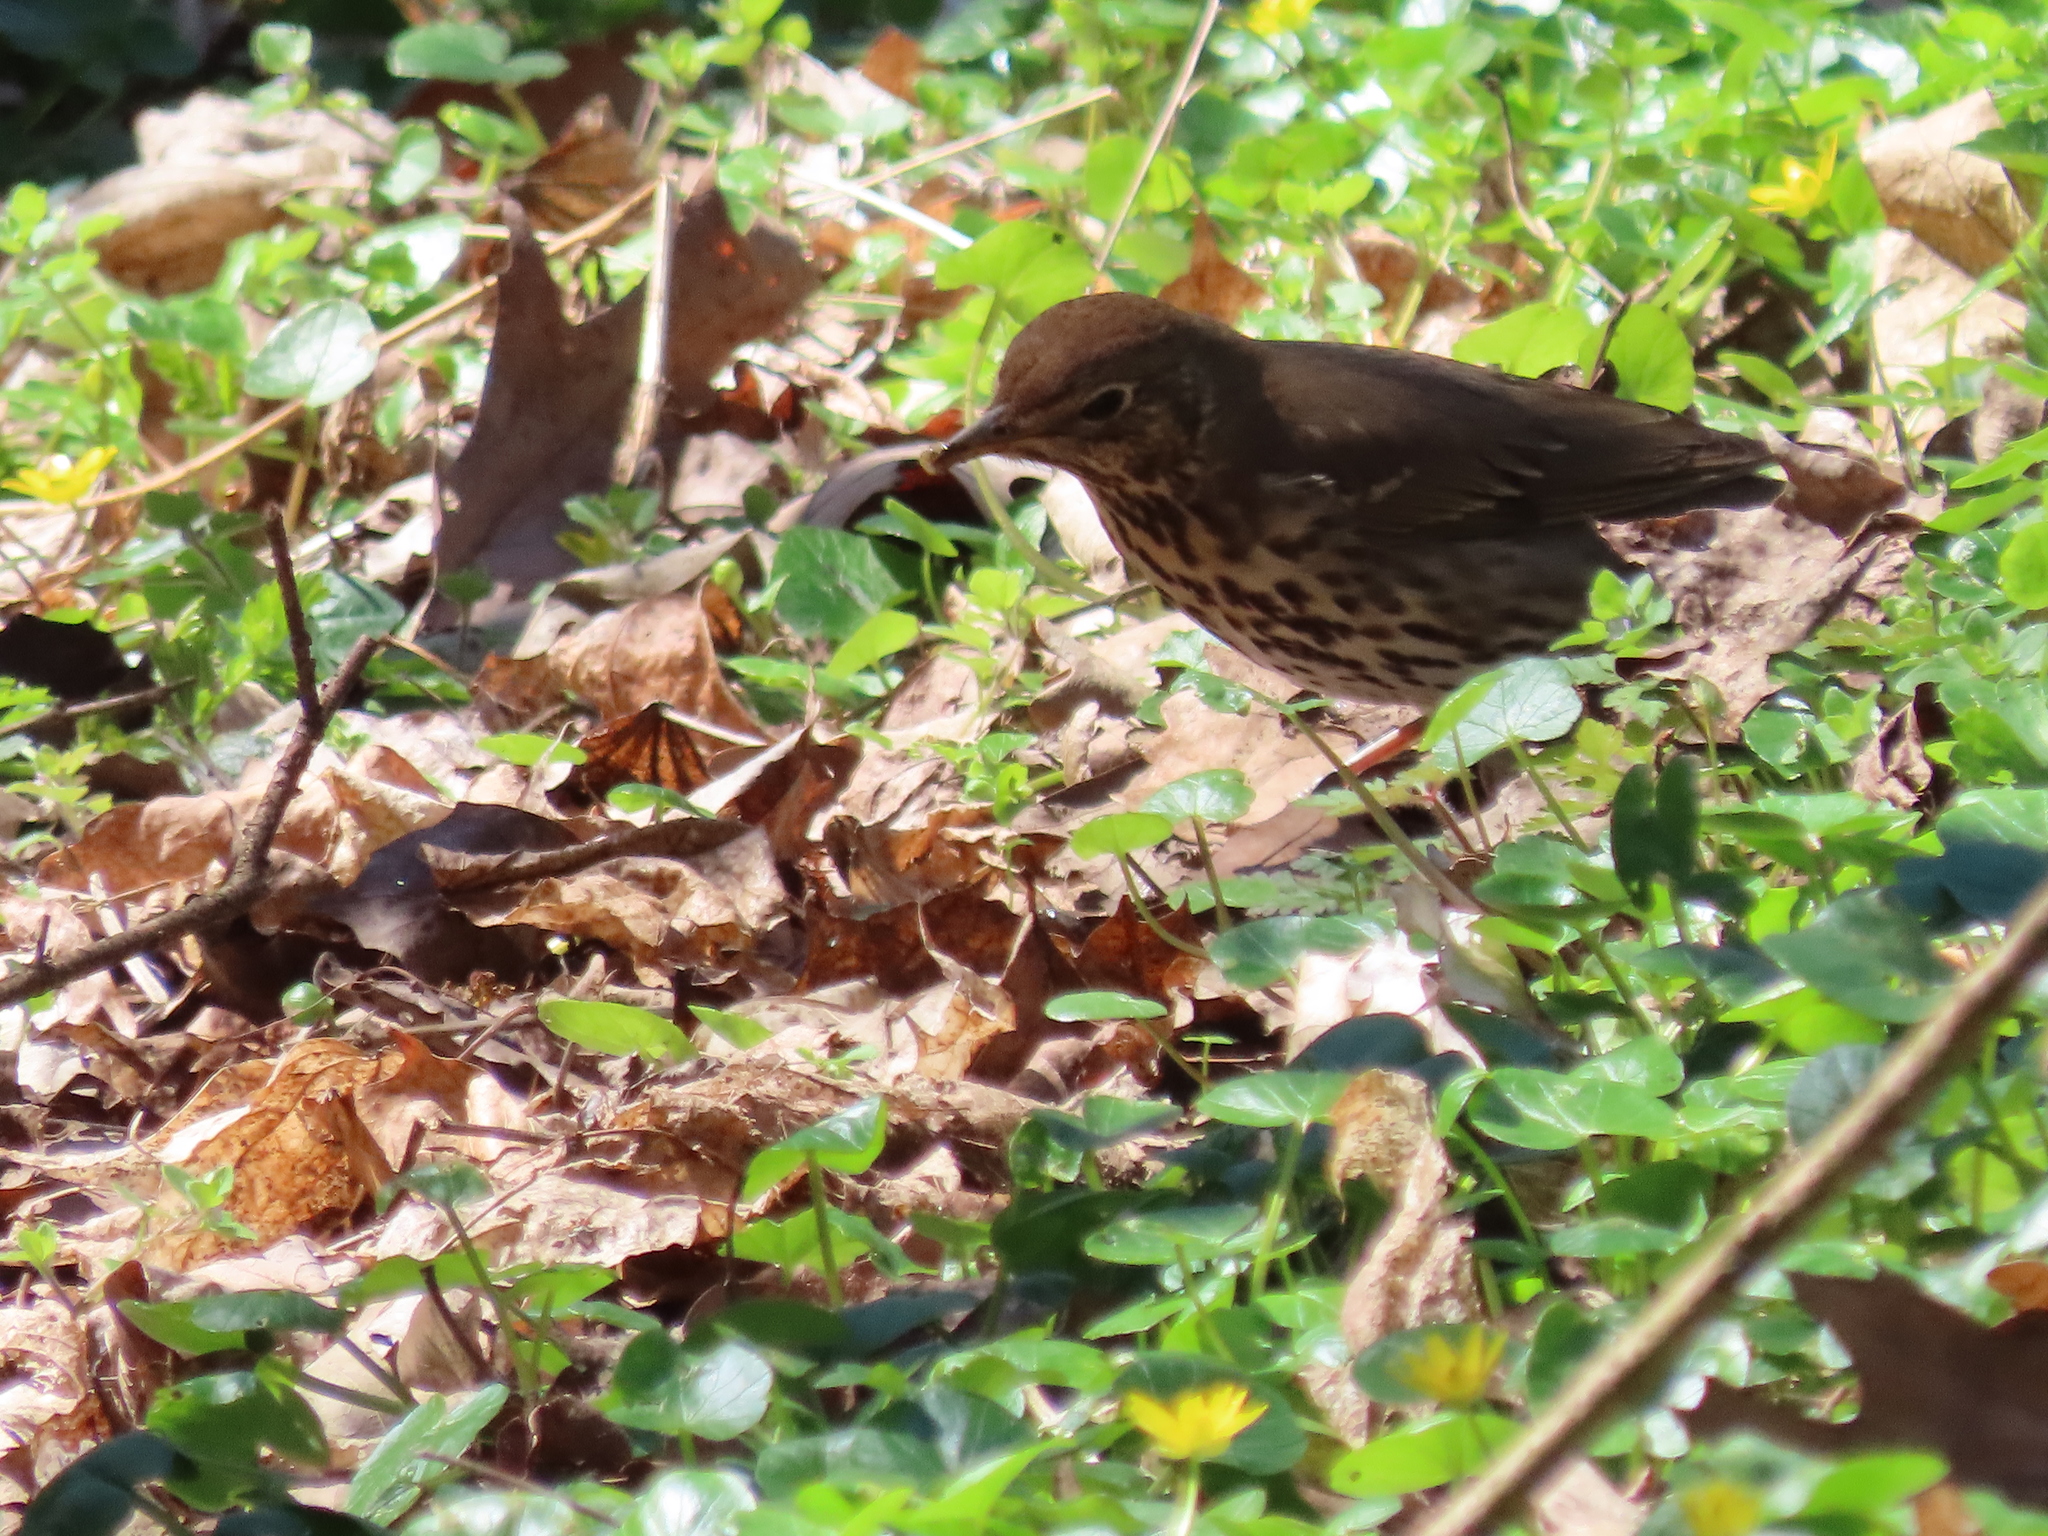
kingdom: Animalia
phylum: Chordata
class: Aves
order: Passeriformes
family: Turdidae
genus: Turdus
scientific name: Turdus philomelos
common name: Song thrush
